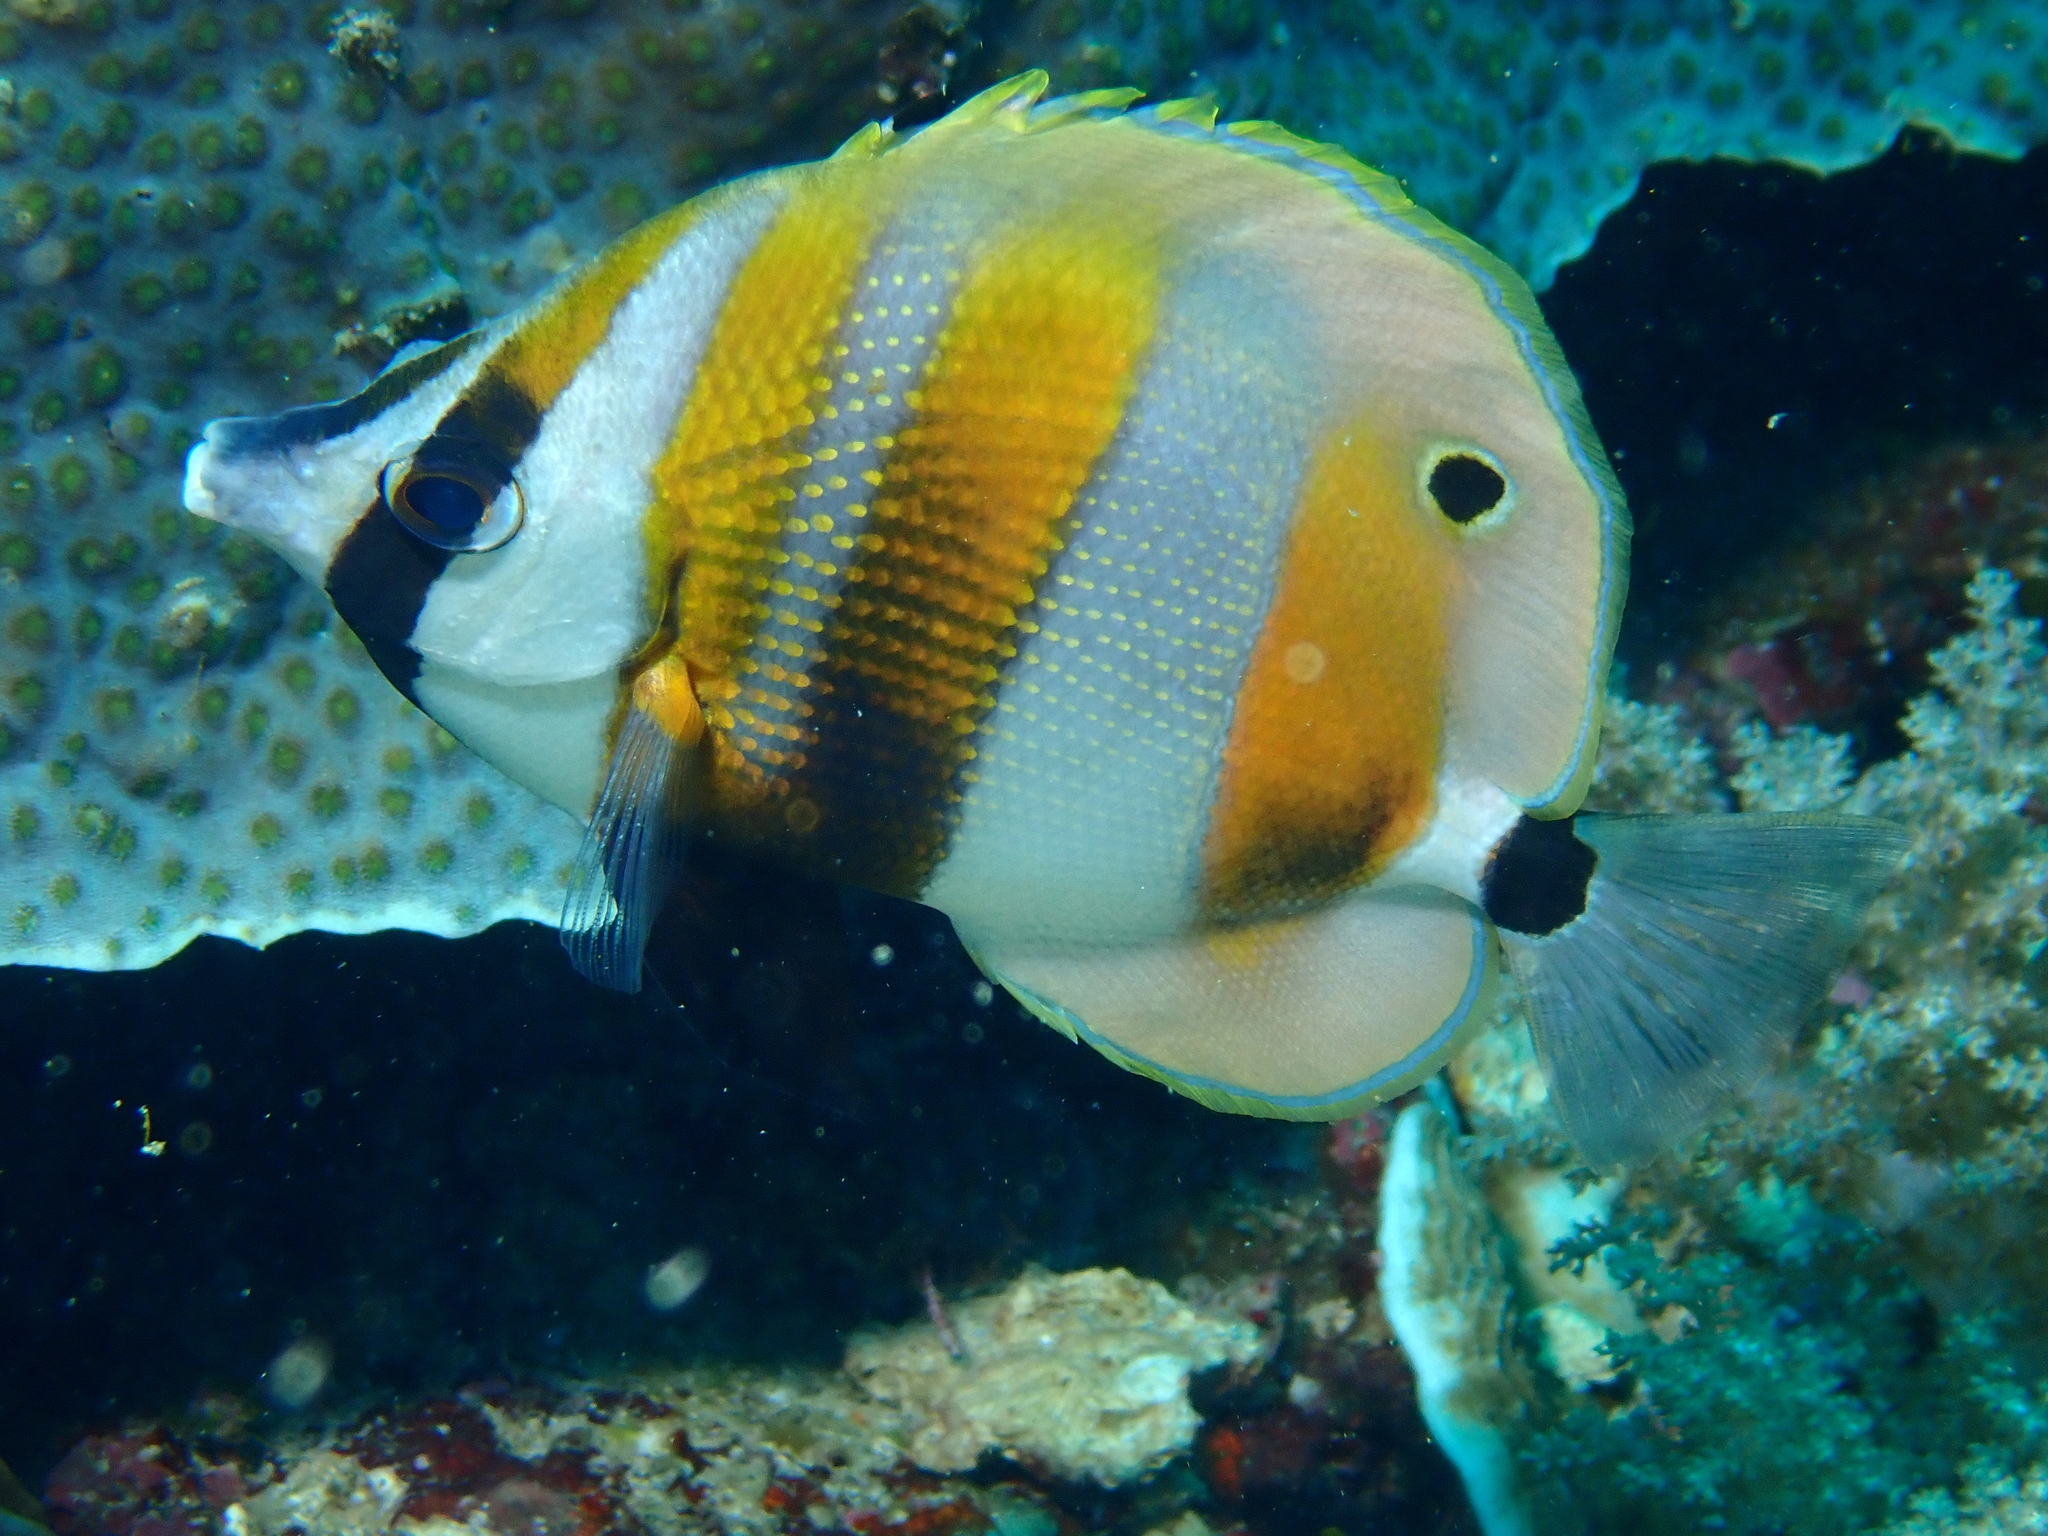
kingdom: Animalia
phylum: Chordata
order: Perciformes
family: Chaetodontidae
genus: Coradion
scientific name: Coradion chrysozonus
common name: Orange-banded coralfish
